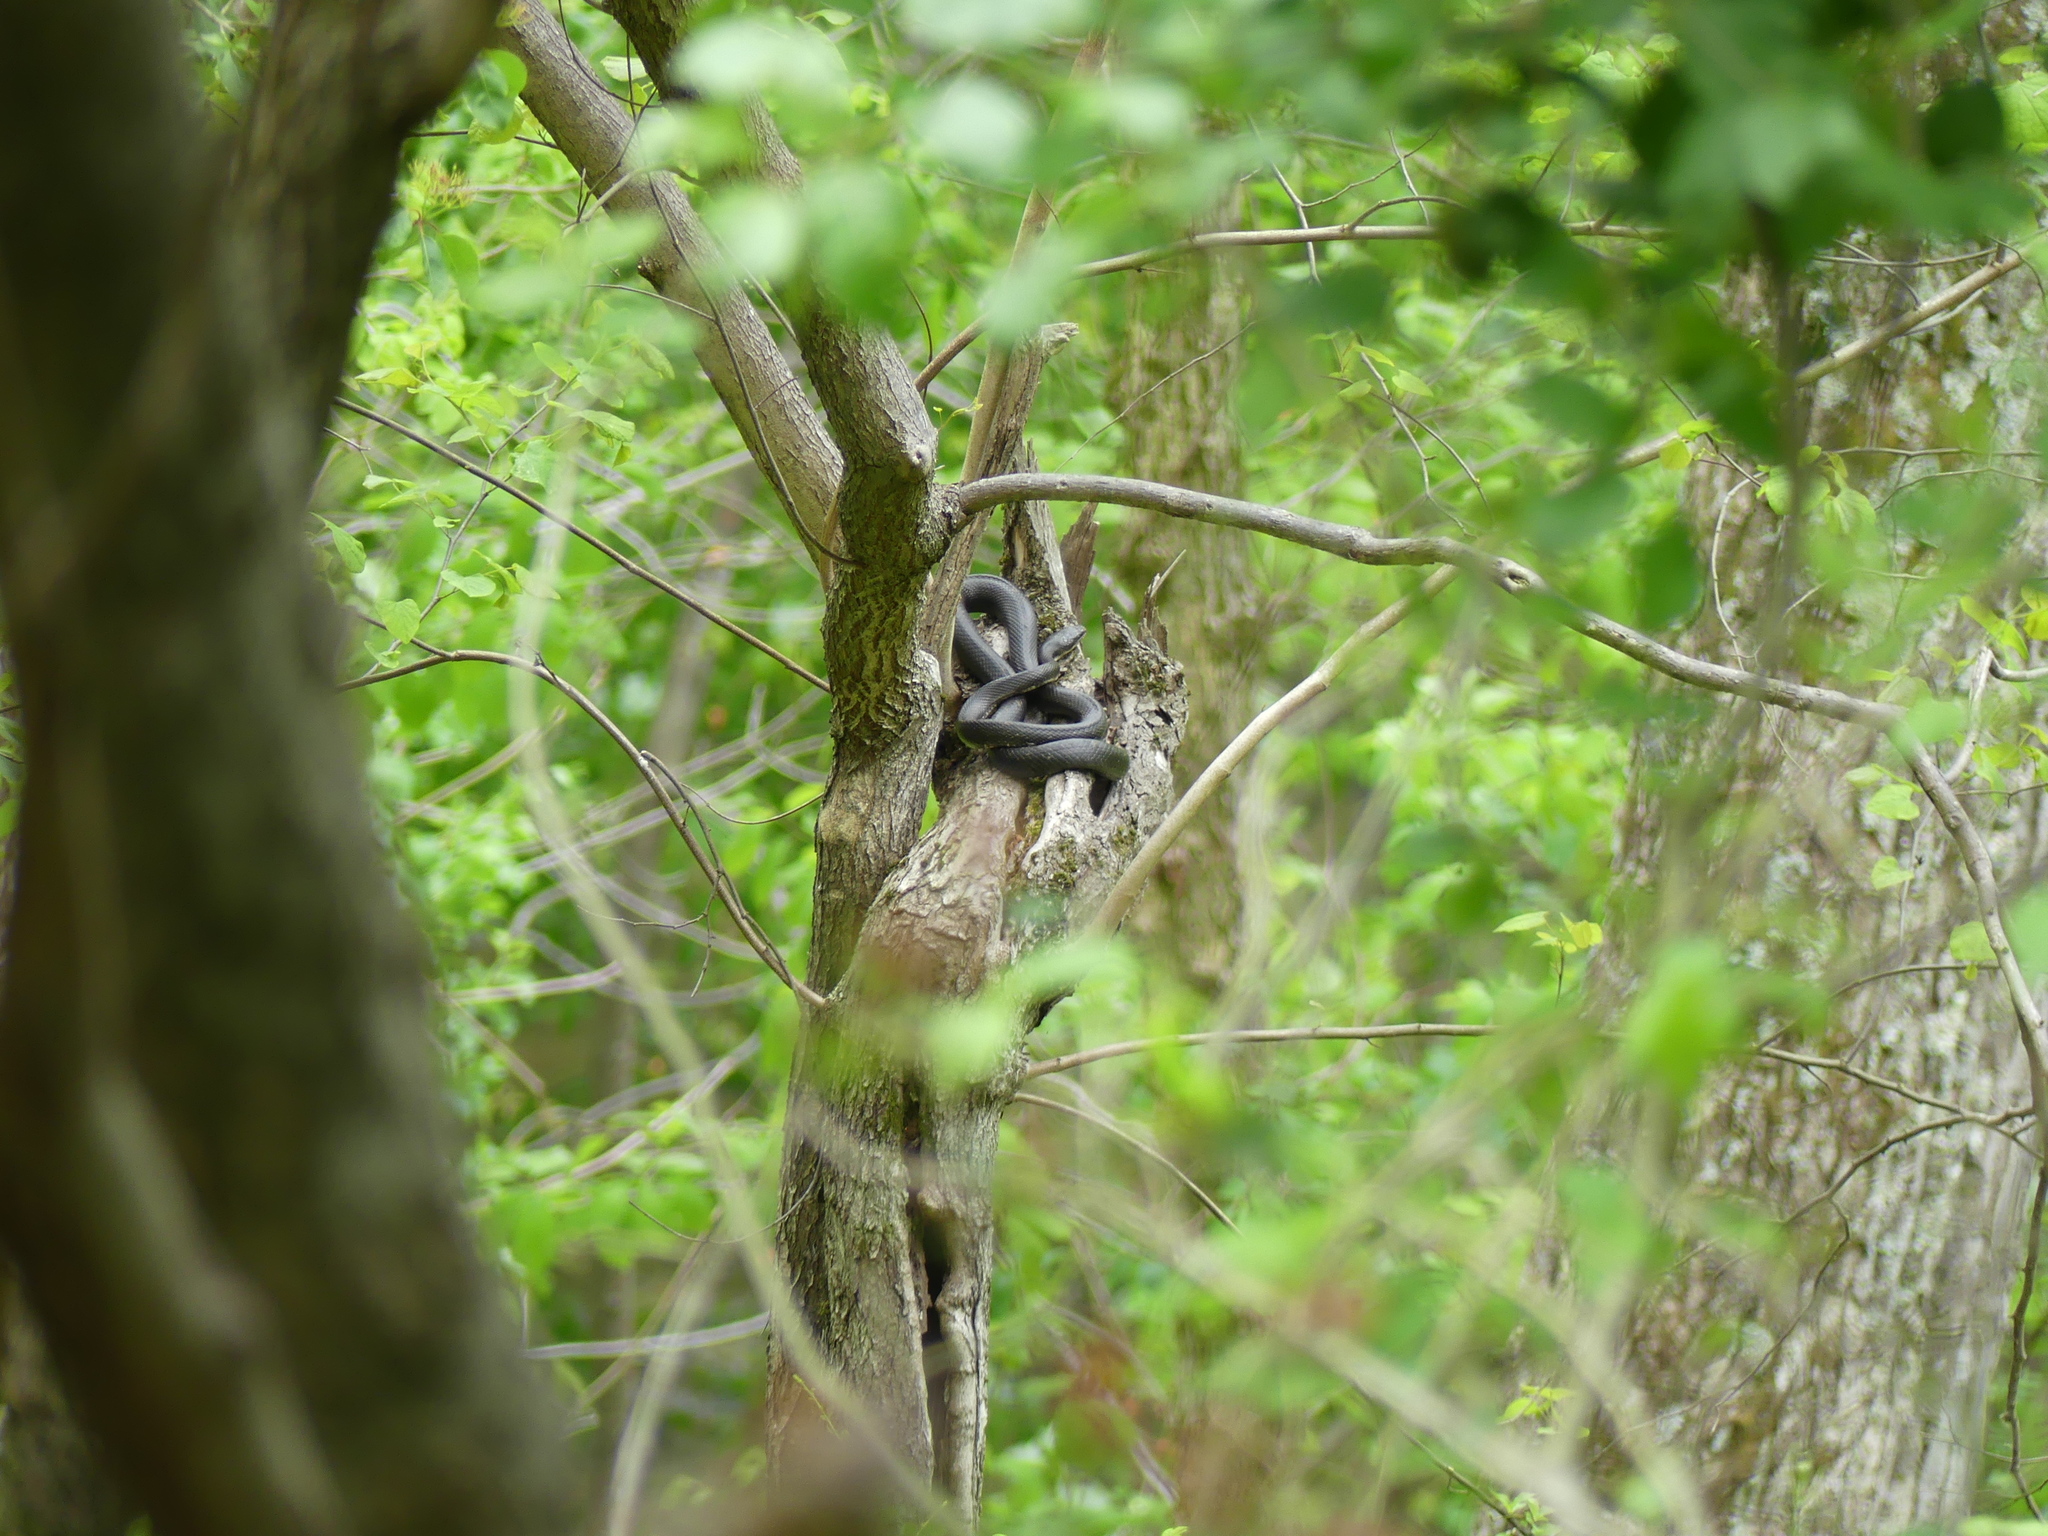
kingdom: Animalia
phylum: Chordata
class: Squamata
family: Colubridae
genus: Pantherophis
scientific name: Pantherophis alleghaniensis
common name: Eastern rat snake
